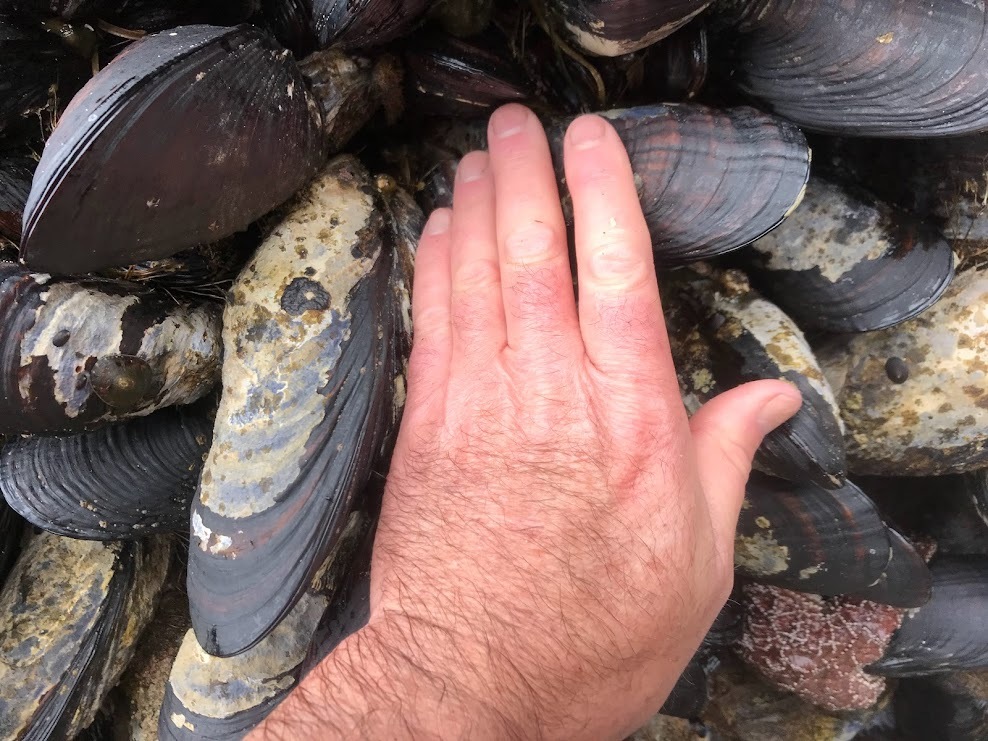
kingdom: Animalia
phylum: Mollusca
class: Bivalvia
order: Mytilida
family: Mytilidae
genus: Mytilus
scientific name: Mytilus californianus
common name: California mussel
